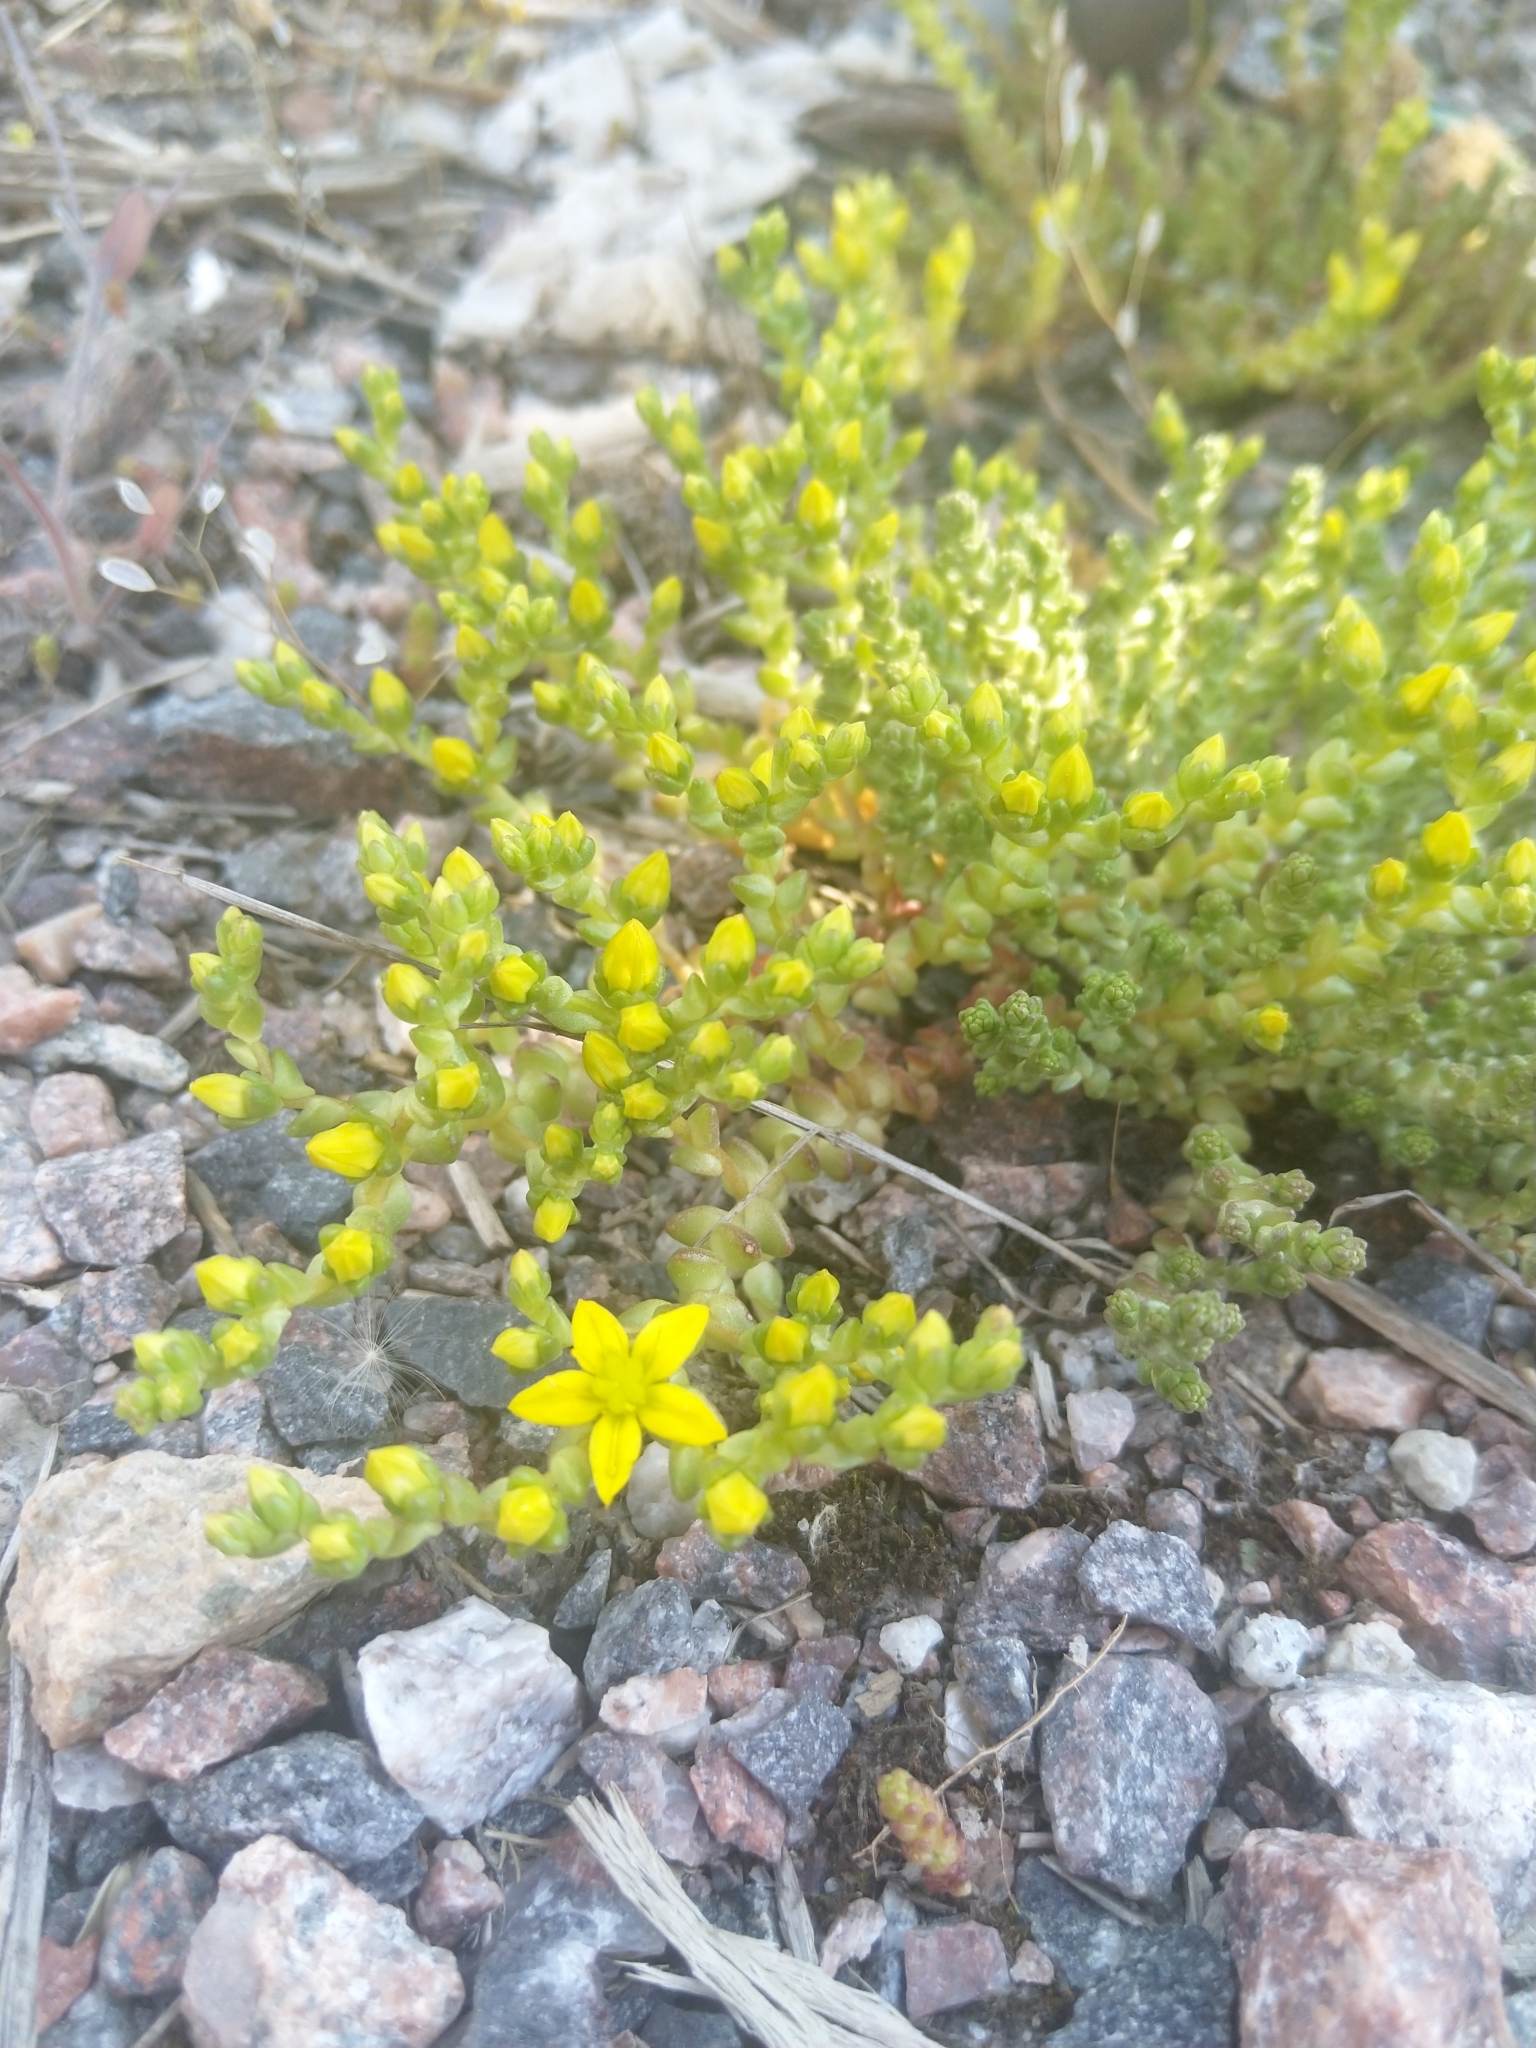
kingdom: Plantae
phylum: Tracheophyta
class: Magnoliopsida
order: Saxifragales
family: Crassulaceae
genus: Sedum
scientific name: Sedum acre
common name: Biting stonecrop
